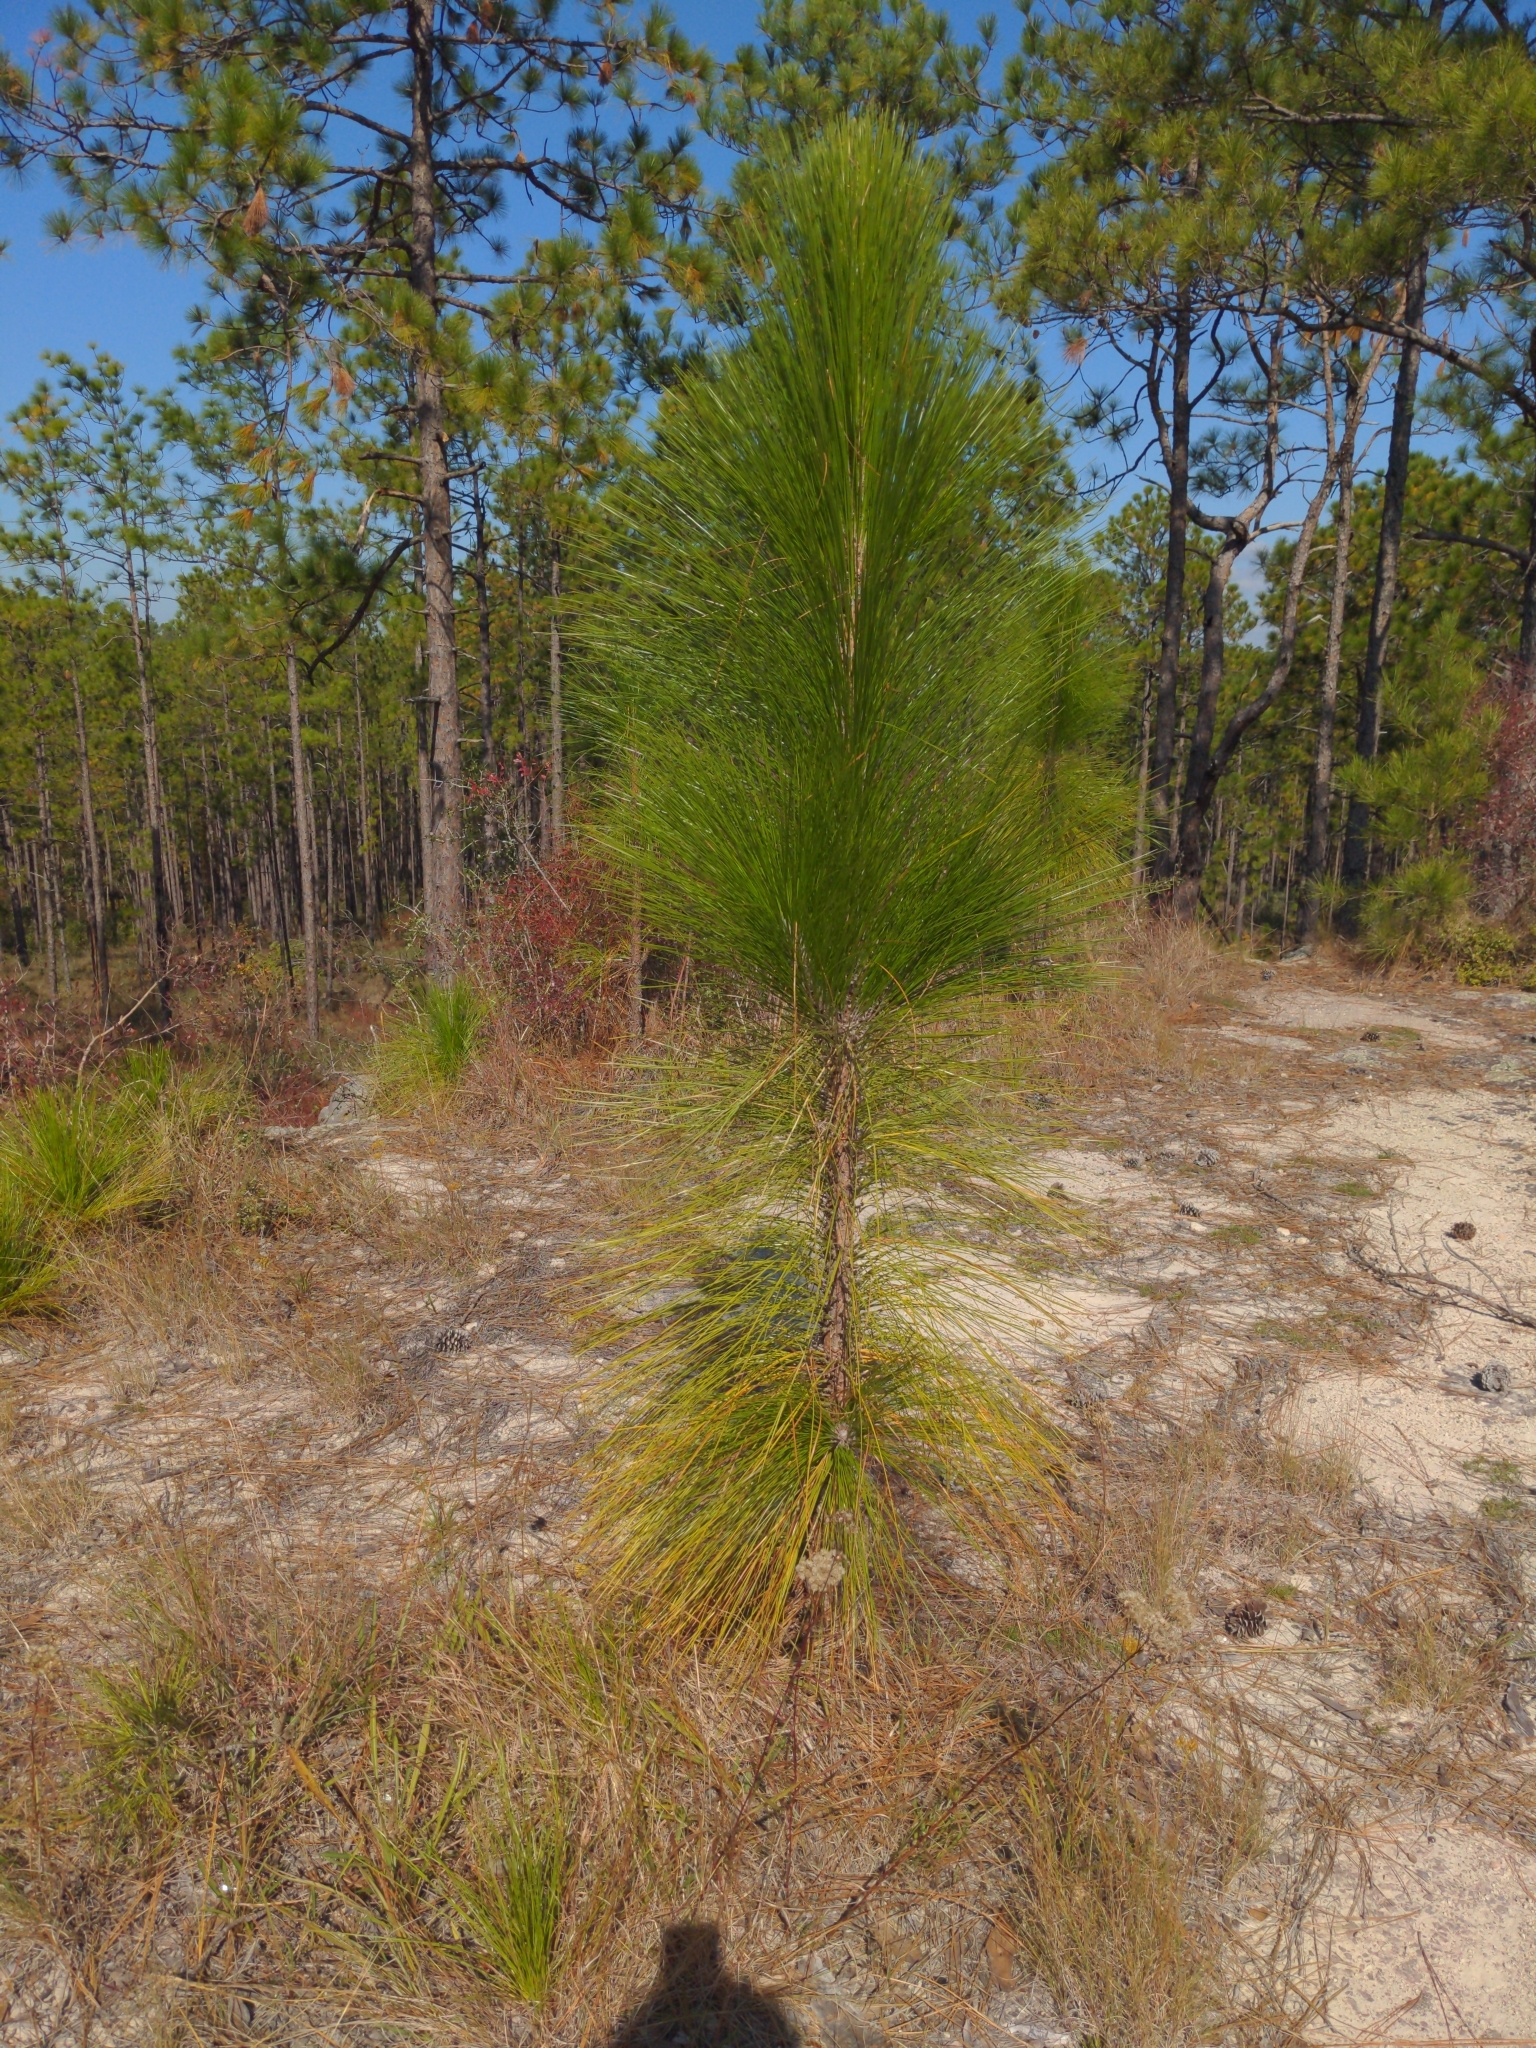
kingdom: Plantae
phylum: Tracheophyta
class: Pinopsida
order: Pinales
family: Pinaceae
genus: Pinus
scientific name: Pinus palustris
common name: Longleaf pine
